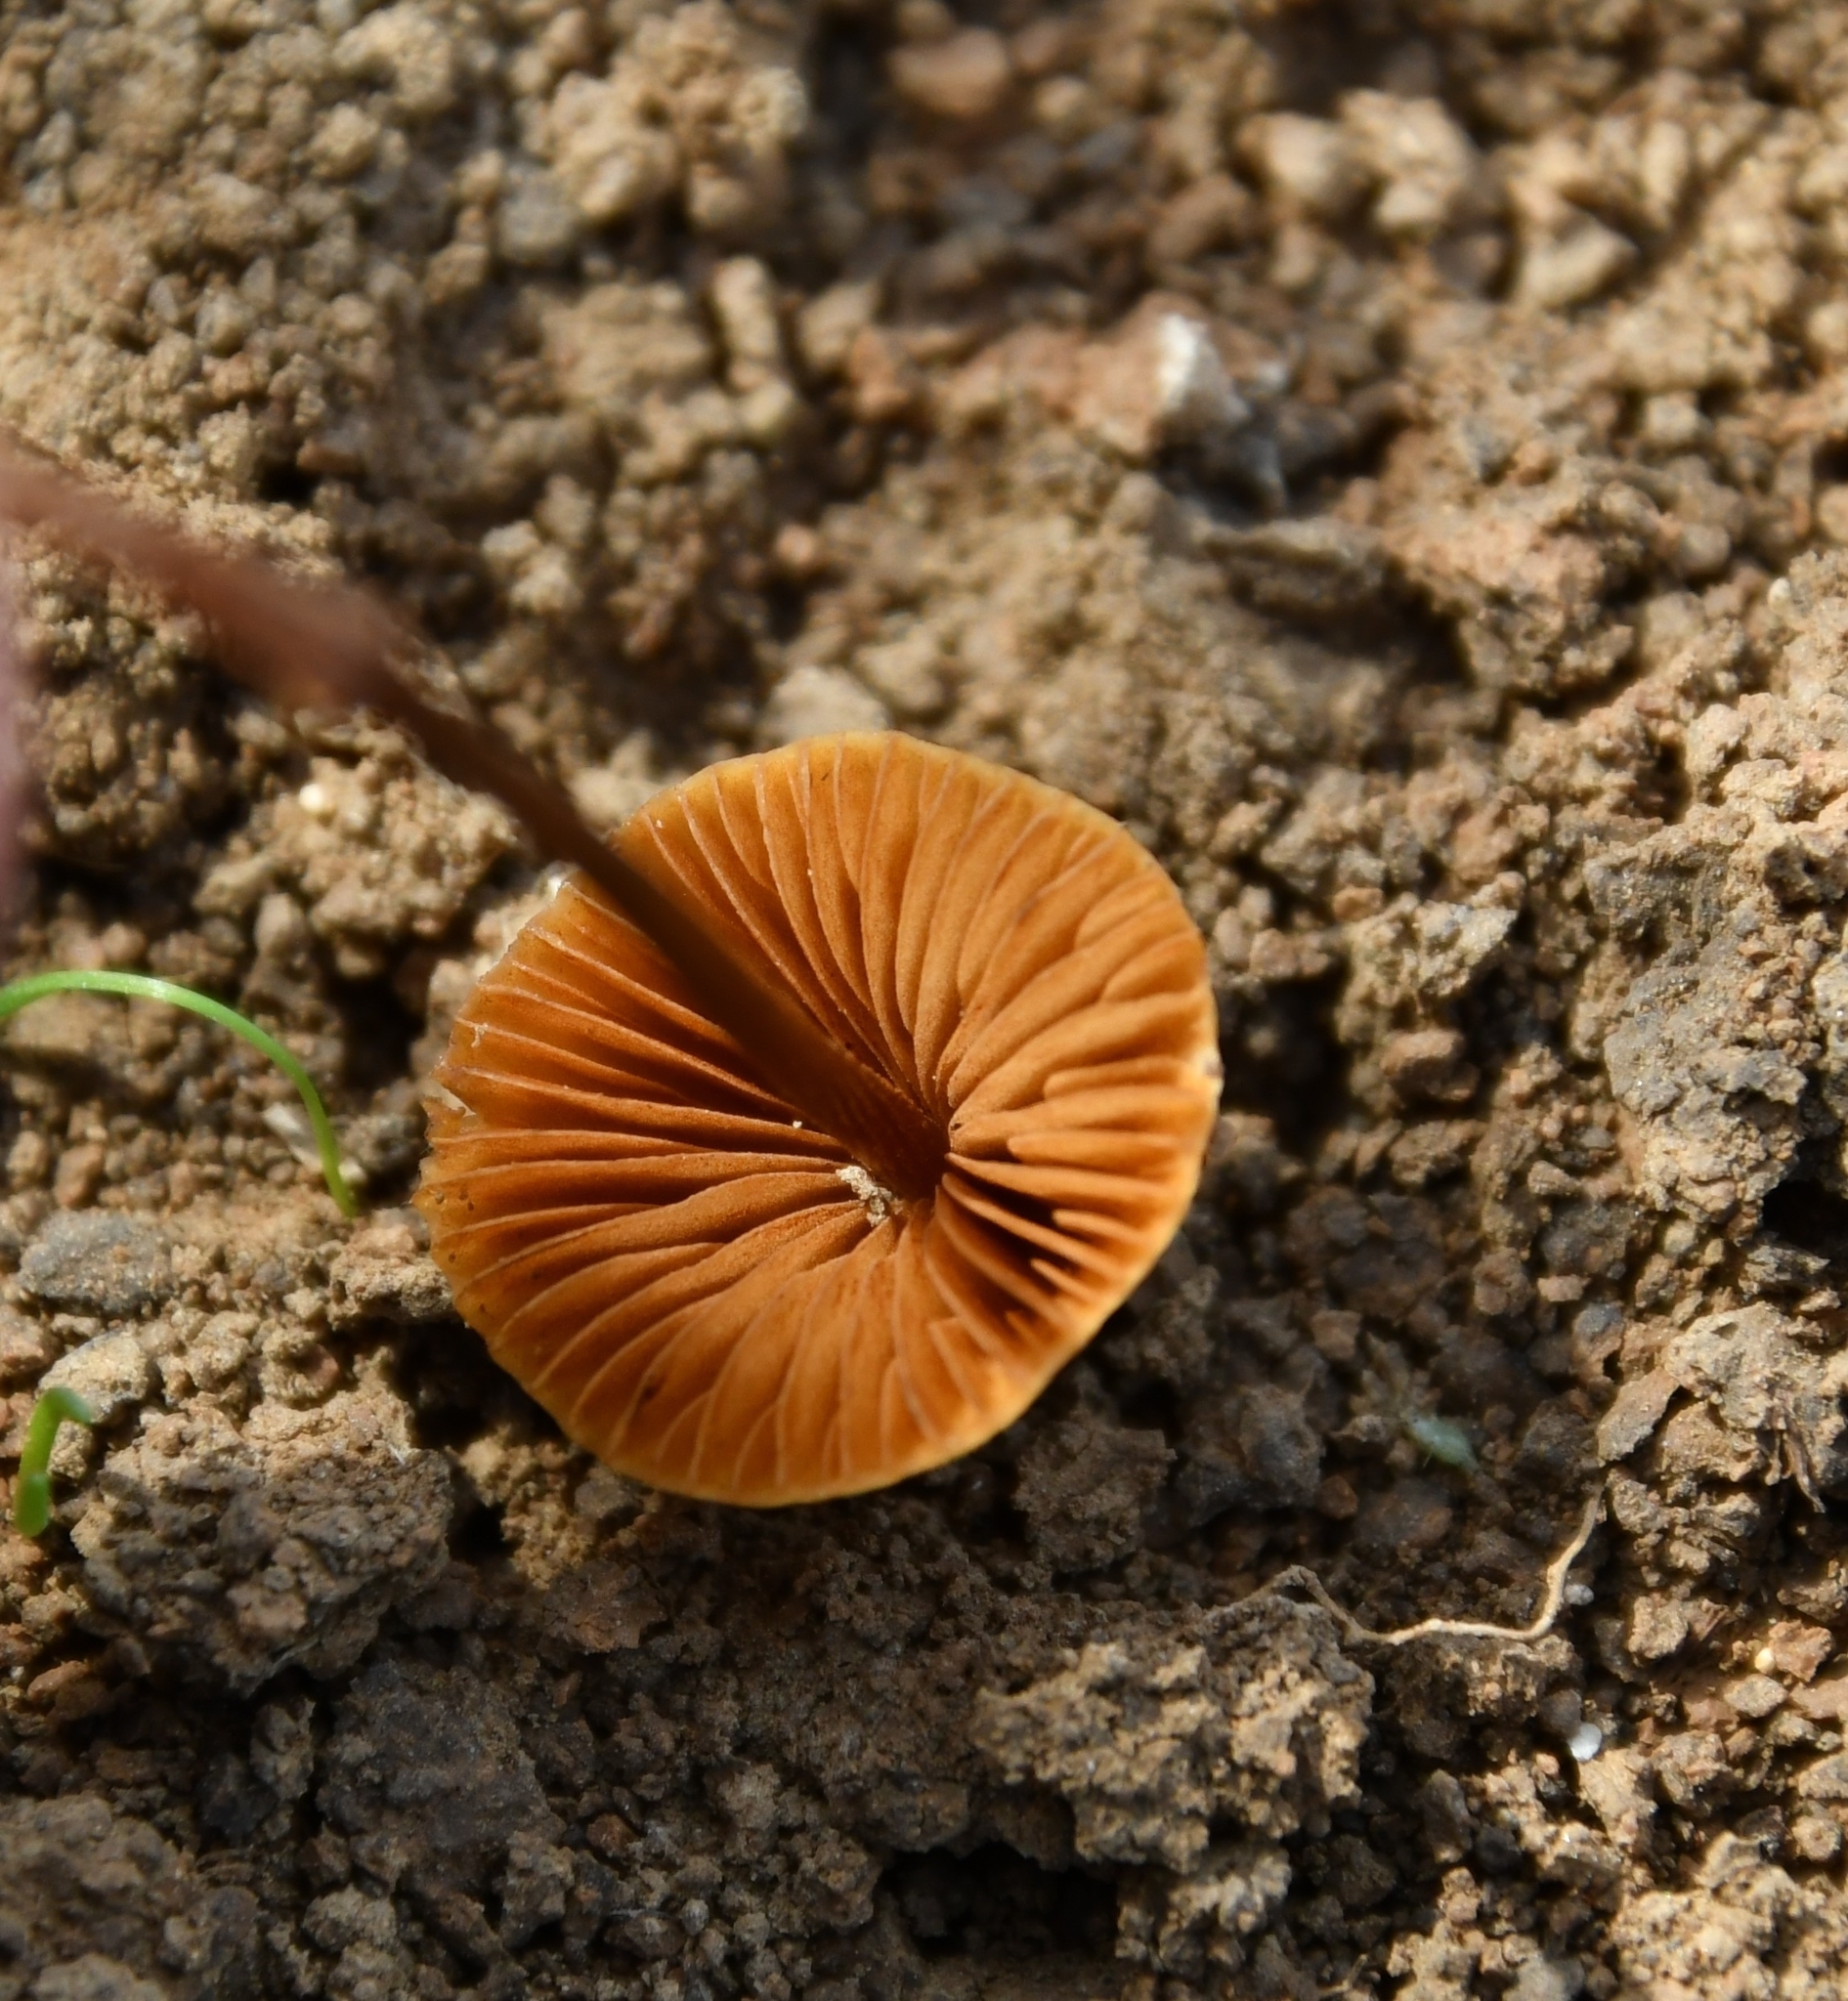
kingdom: Fungi
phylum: Basidiomycota
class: Agaricomycetes
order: Agaricales
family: Bolbitiaceae
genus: Conocybe
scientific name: Conocybe tenera
